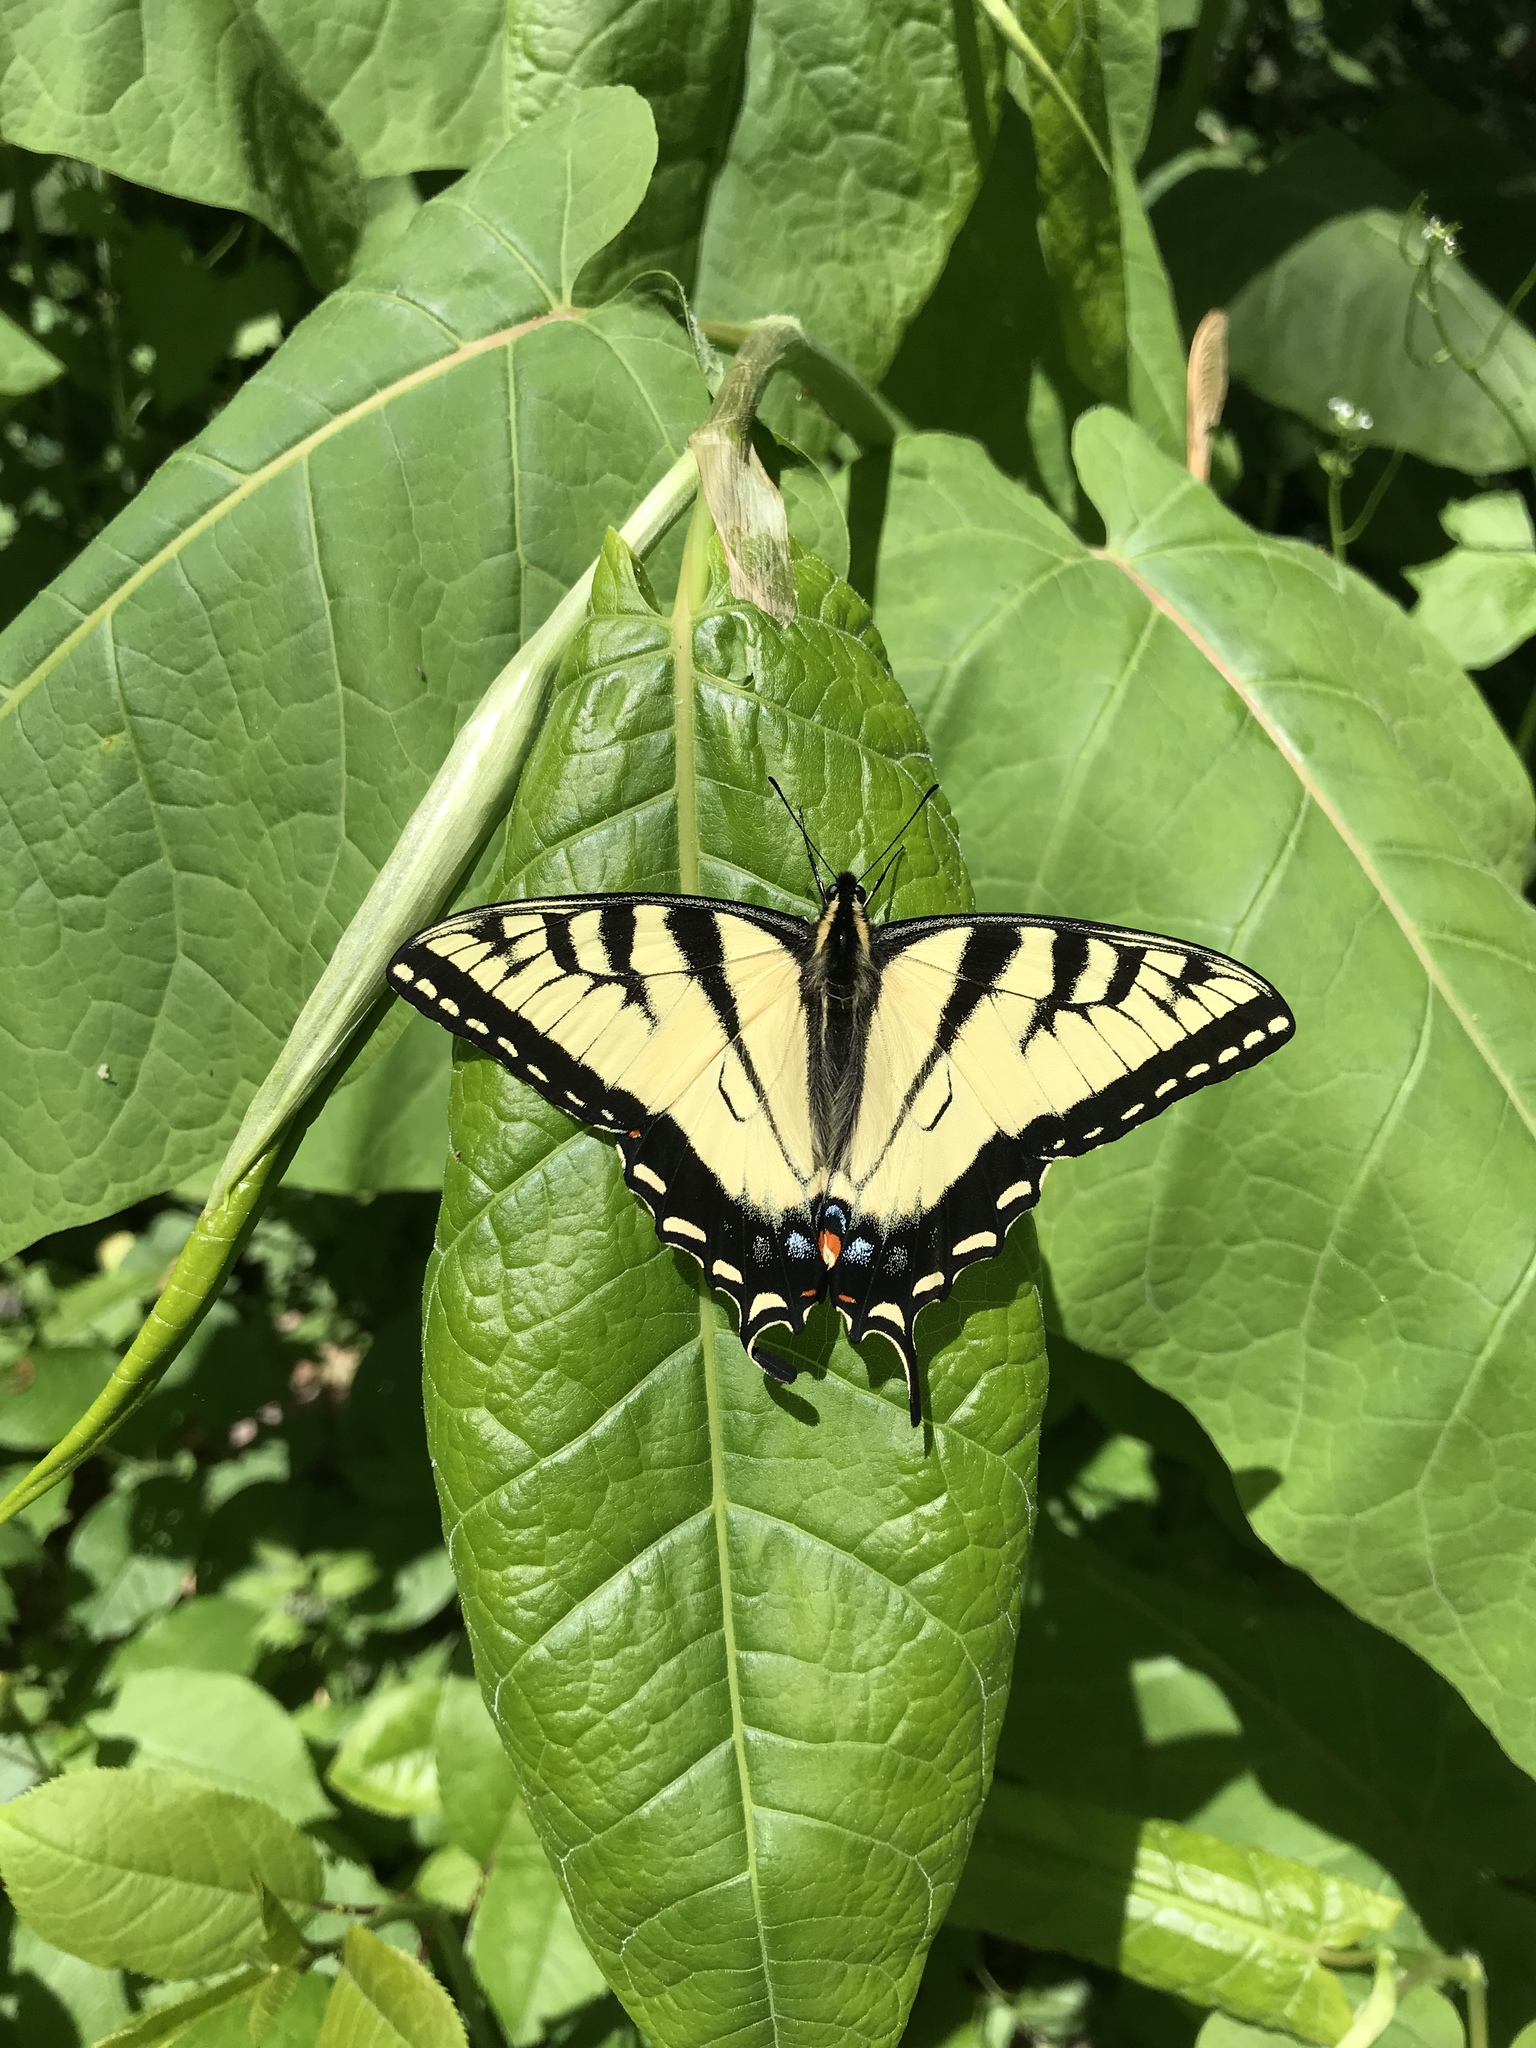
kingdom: Animalia
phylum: Arthropoda
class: Insecta
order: Lepidoptera
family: Papilionidae
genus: Papilio
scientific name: Papilio glaucus
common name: Tiger swallowtail
